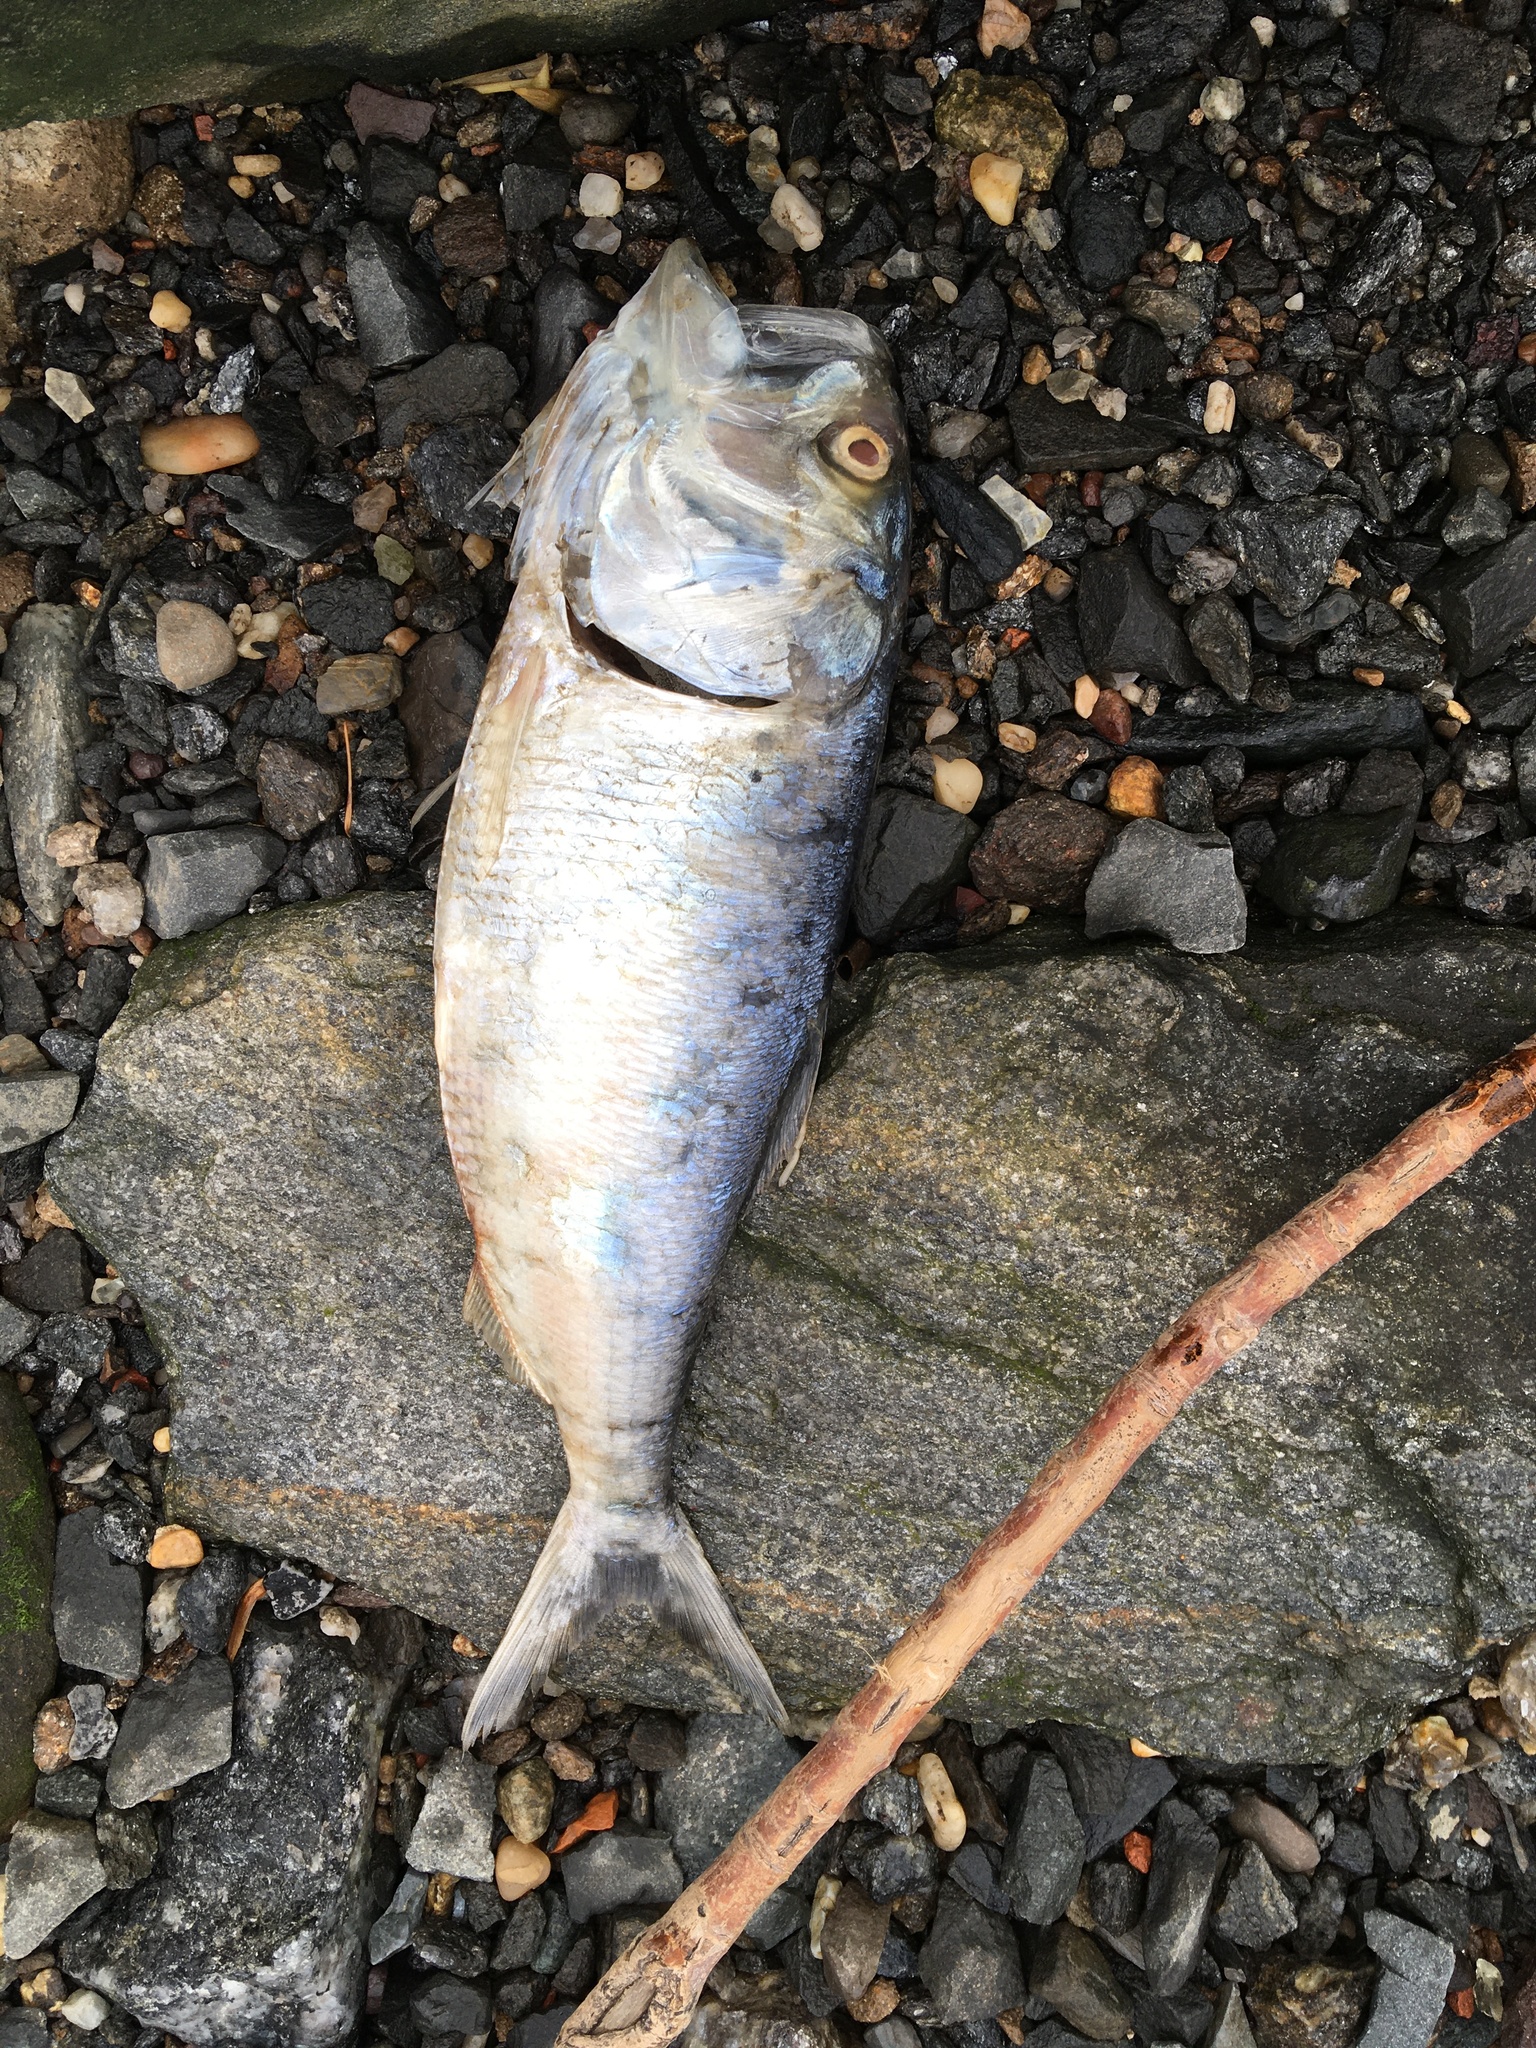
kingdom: Animalia
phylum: Chordata
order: Clupeiformes
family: Clupeidae
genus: Brevoortia
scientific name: Brevoortia tyrannus
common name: Atlantic menhaden
